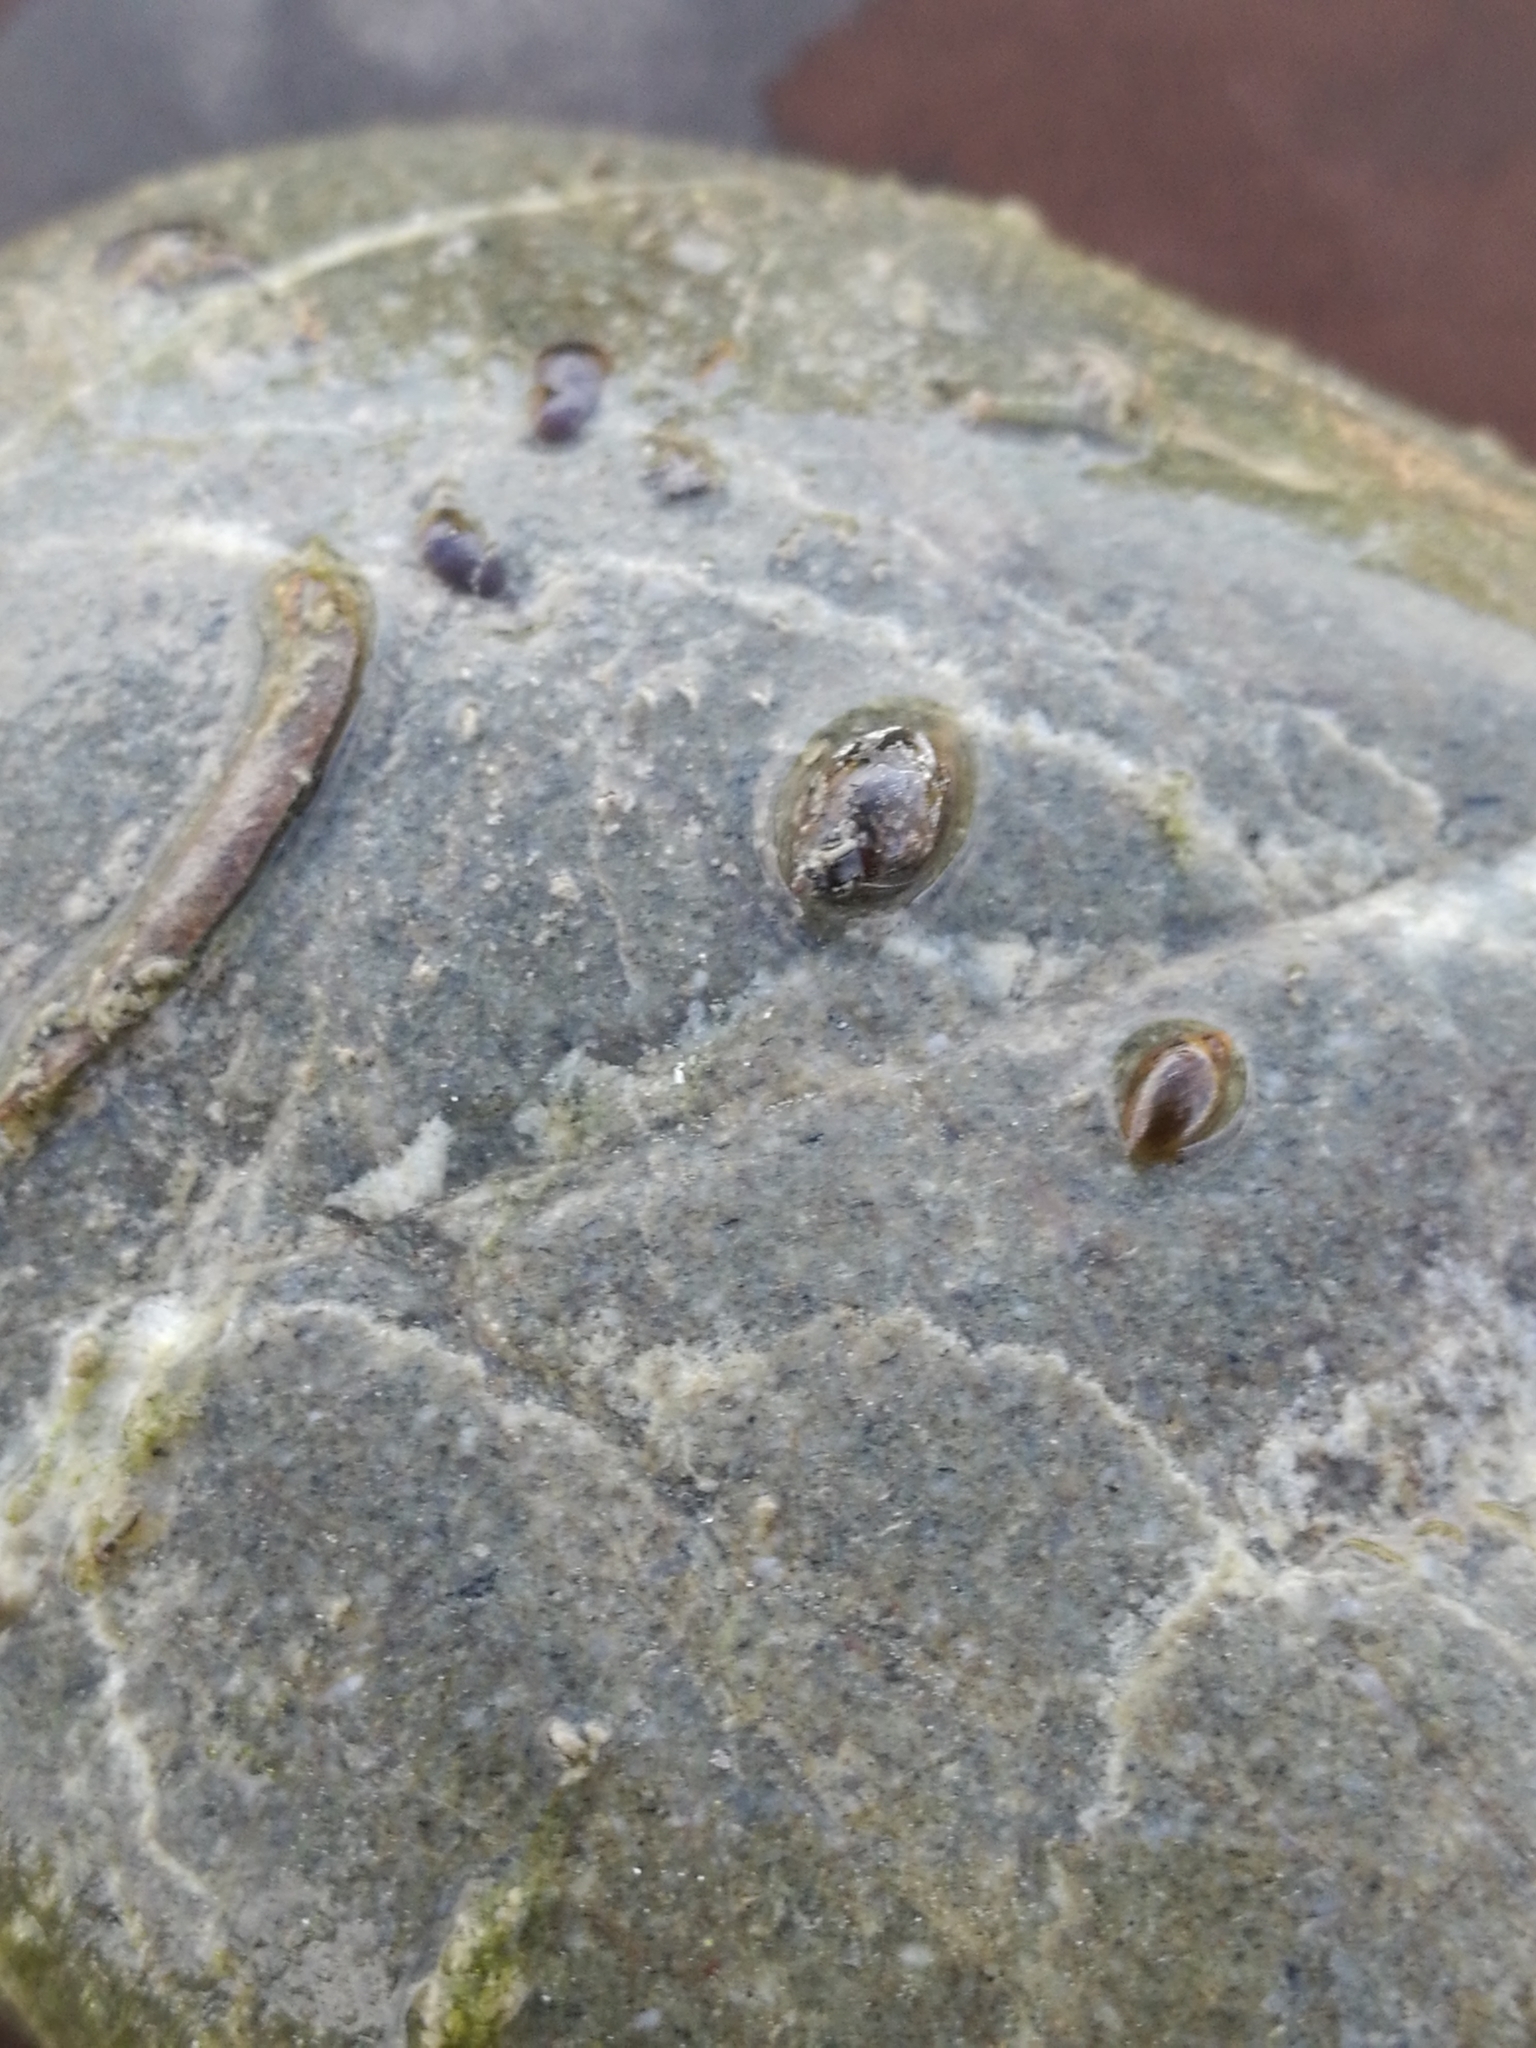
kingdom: Animalia
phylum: Mollusca
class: Gastropoda
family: Physidae
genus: Physella
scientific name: Physella acuta
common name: European physa
